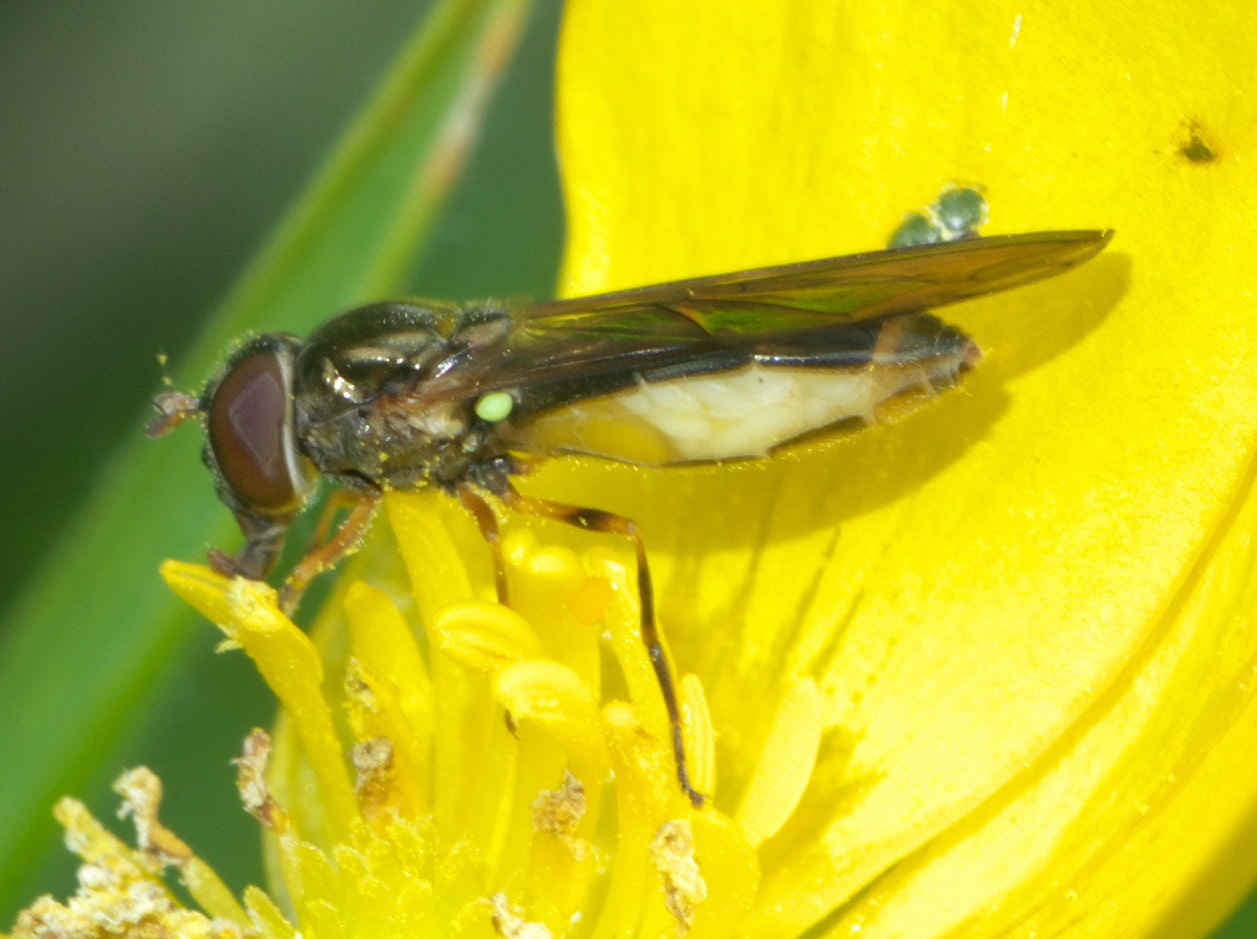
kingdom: Animalia
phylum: Arthropoda
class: Insecta
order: Diptera
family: Syrphidae
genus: Melanostoma
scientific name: Melanostoma
